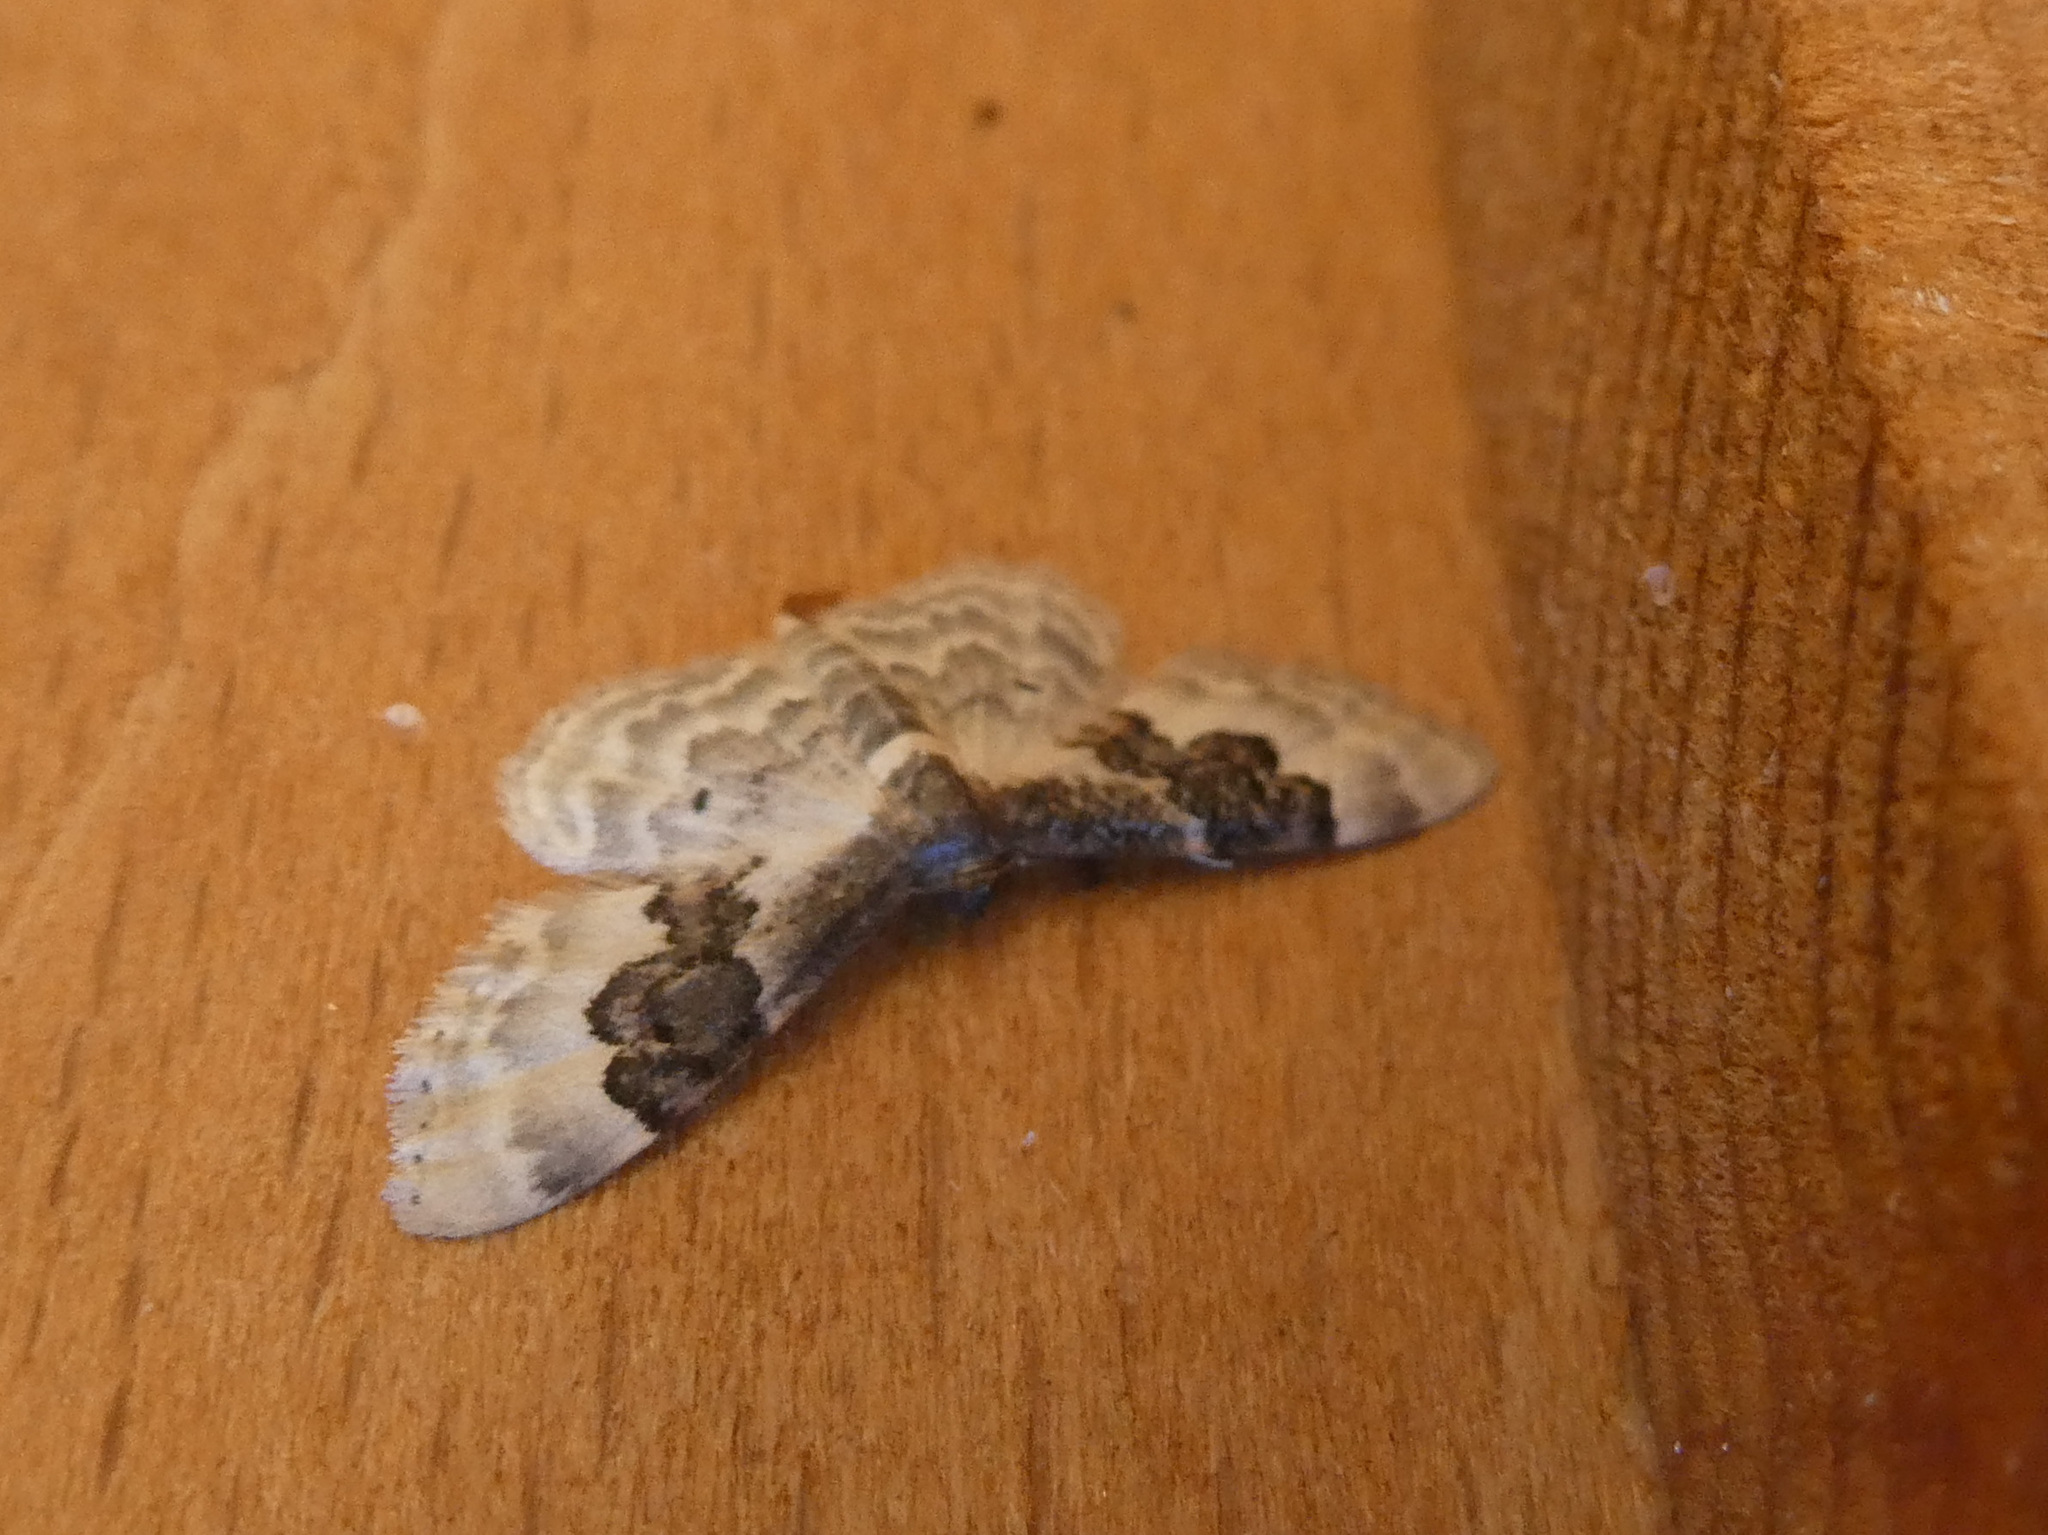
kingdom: Animalia
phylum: Arthropoda
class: Insecta
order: Lepidoptera
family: Geometridae
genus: Idaea
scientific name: Idaea rusticata
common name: Least carpet
